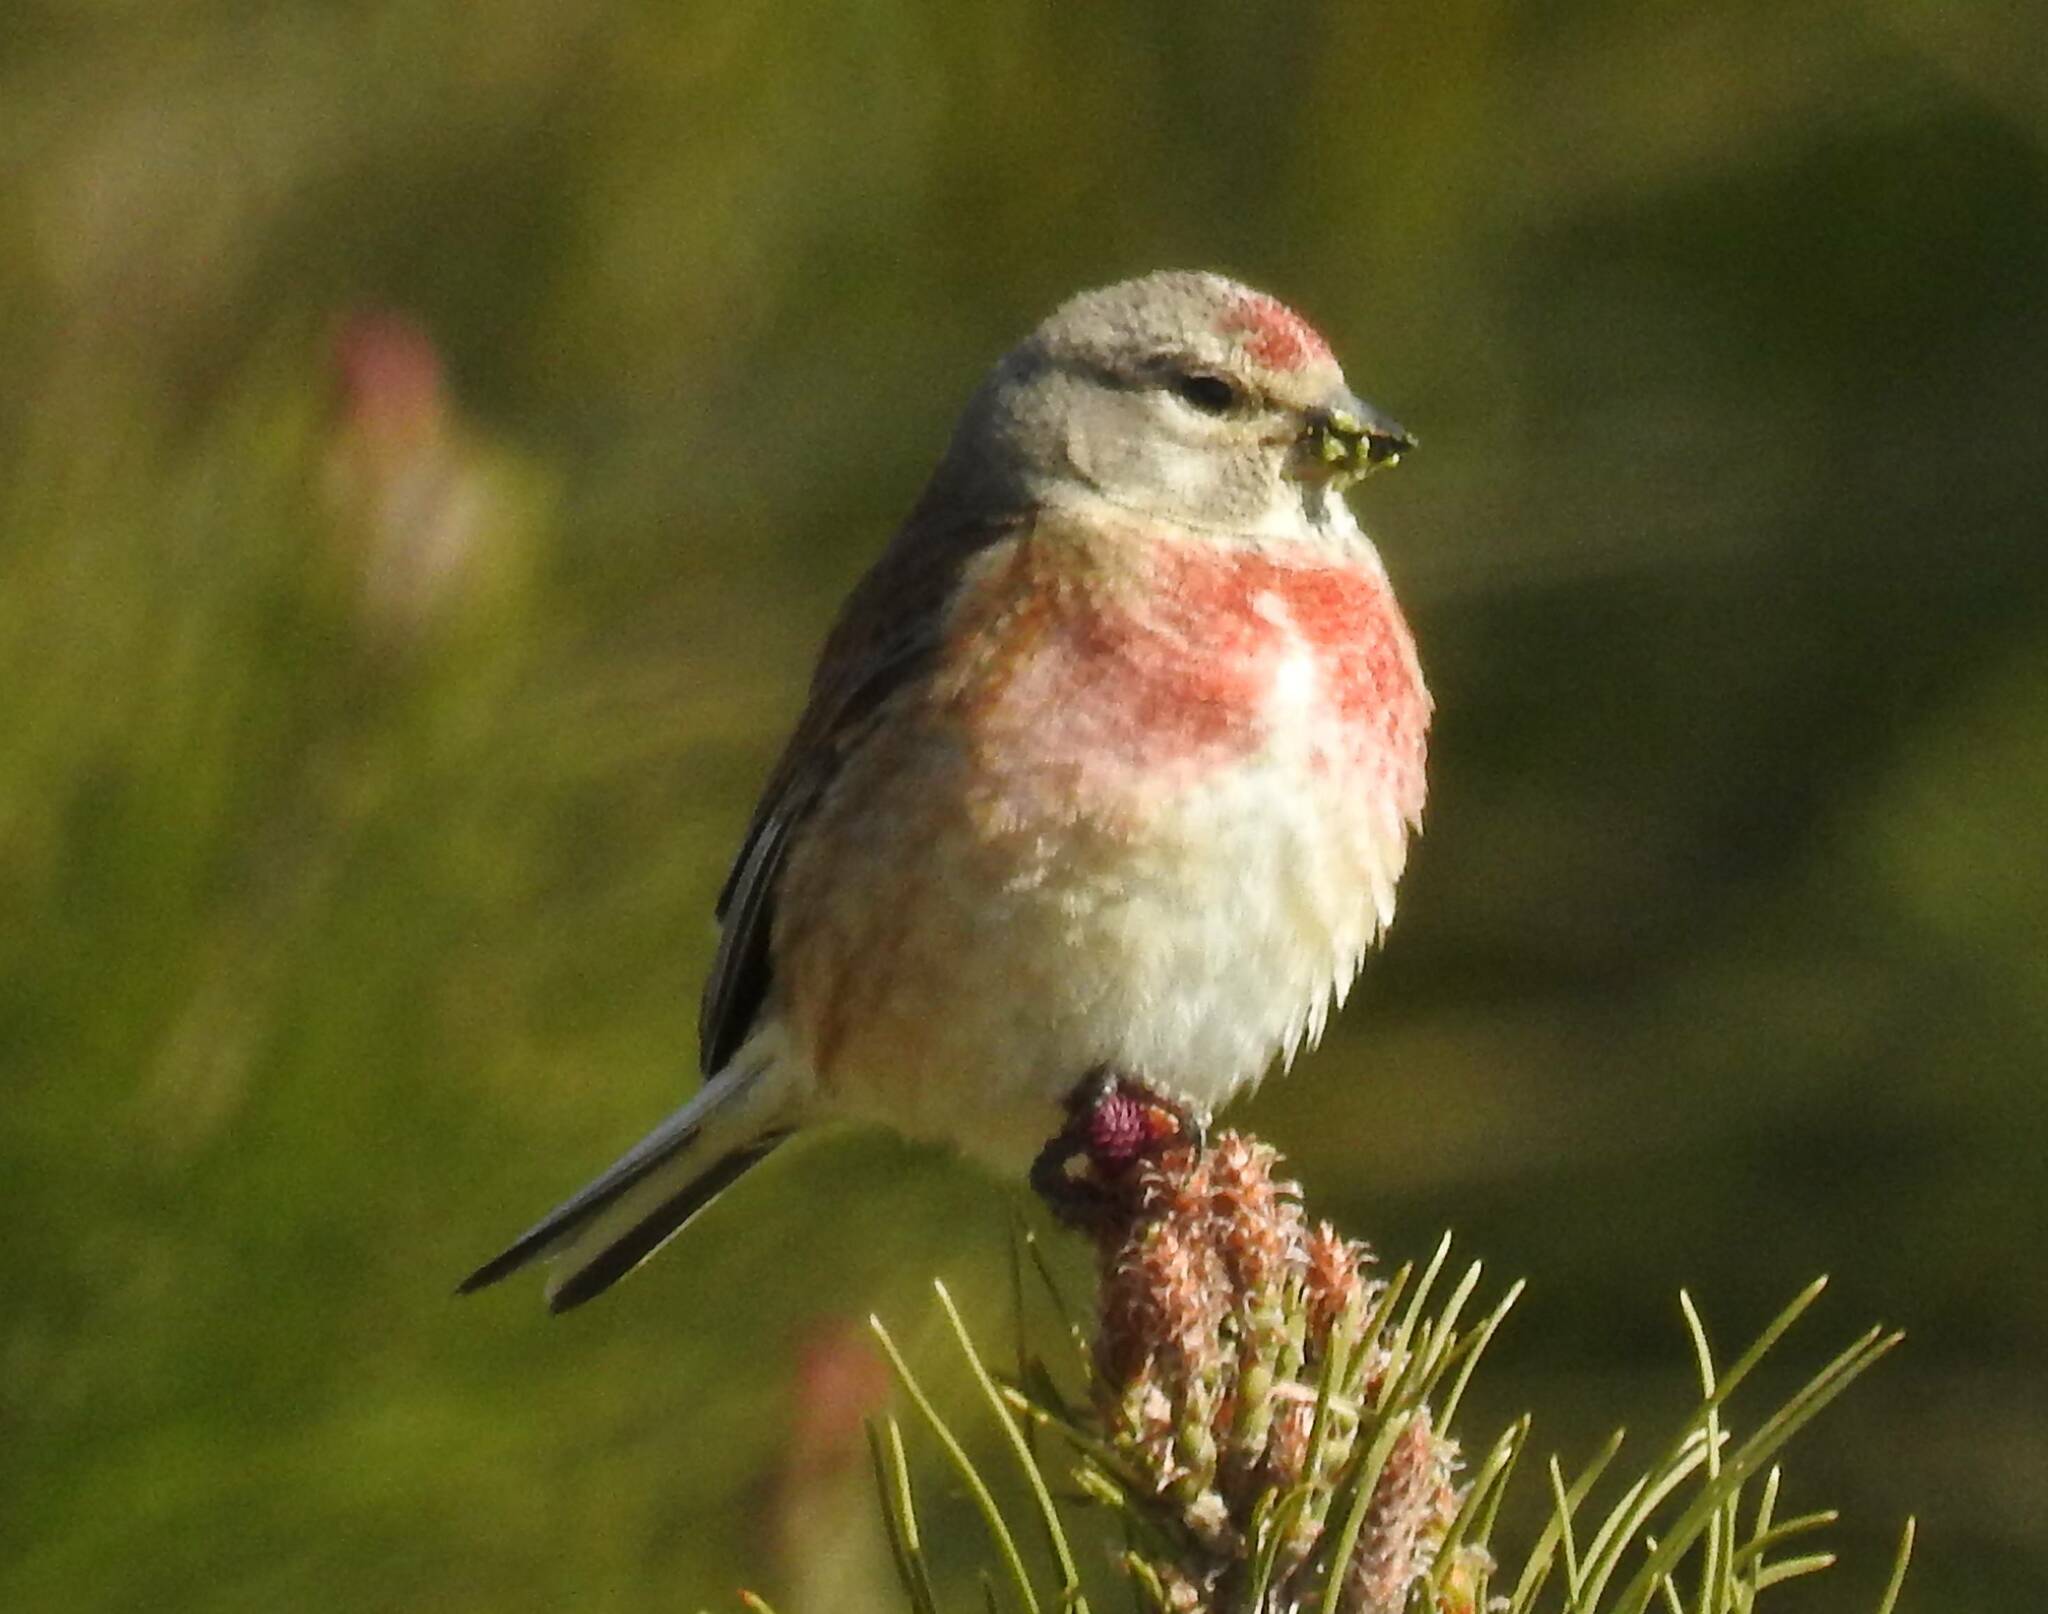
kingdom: Animalia
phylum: Chordata
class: Aves
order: Passeriformes
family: Fringillidae
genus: Linaria
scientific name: Linaria cannabina
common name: Common linnet
